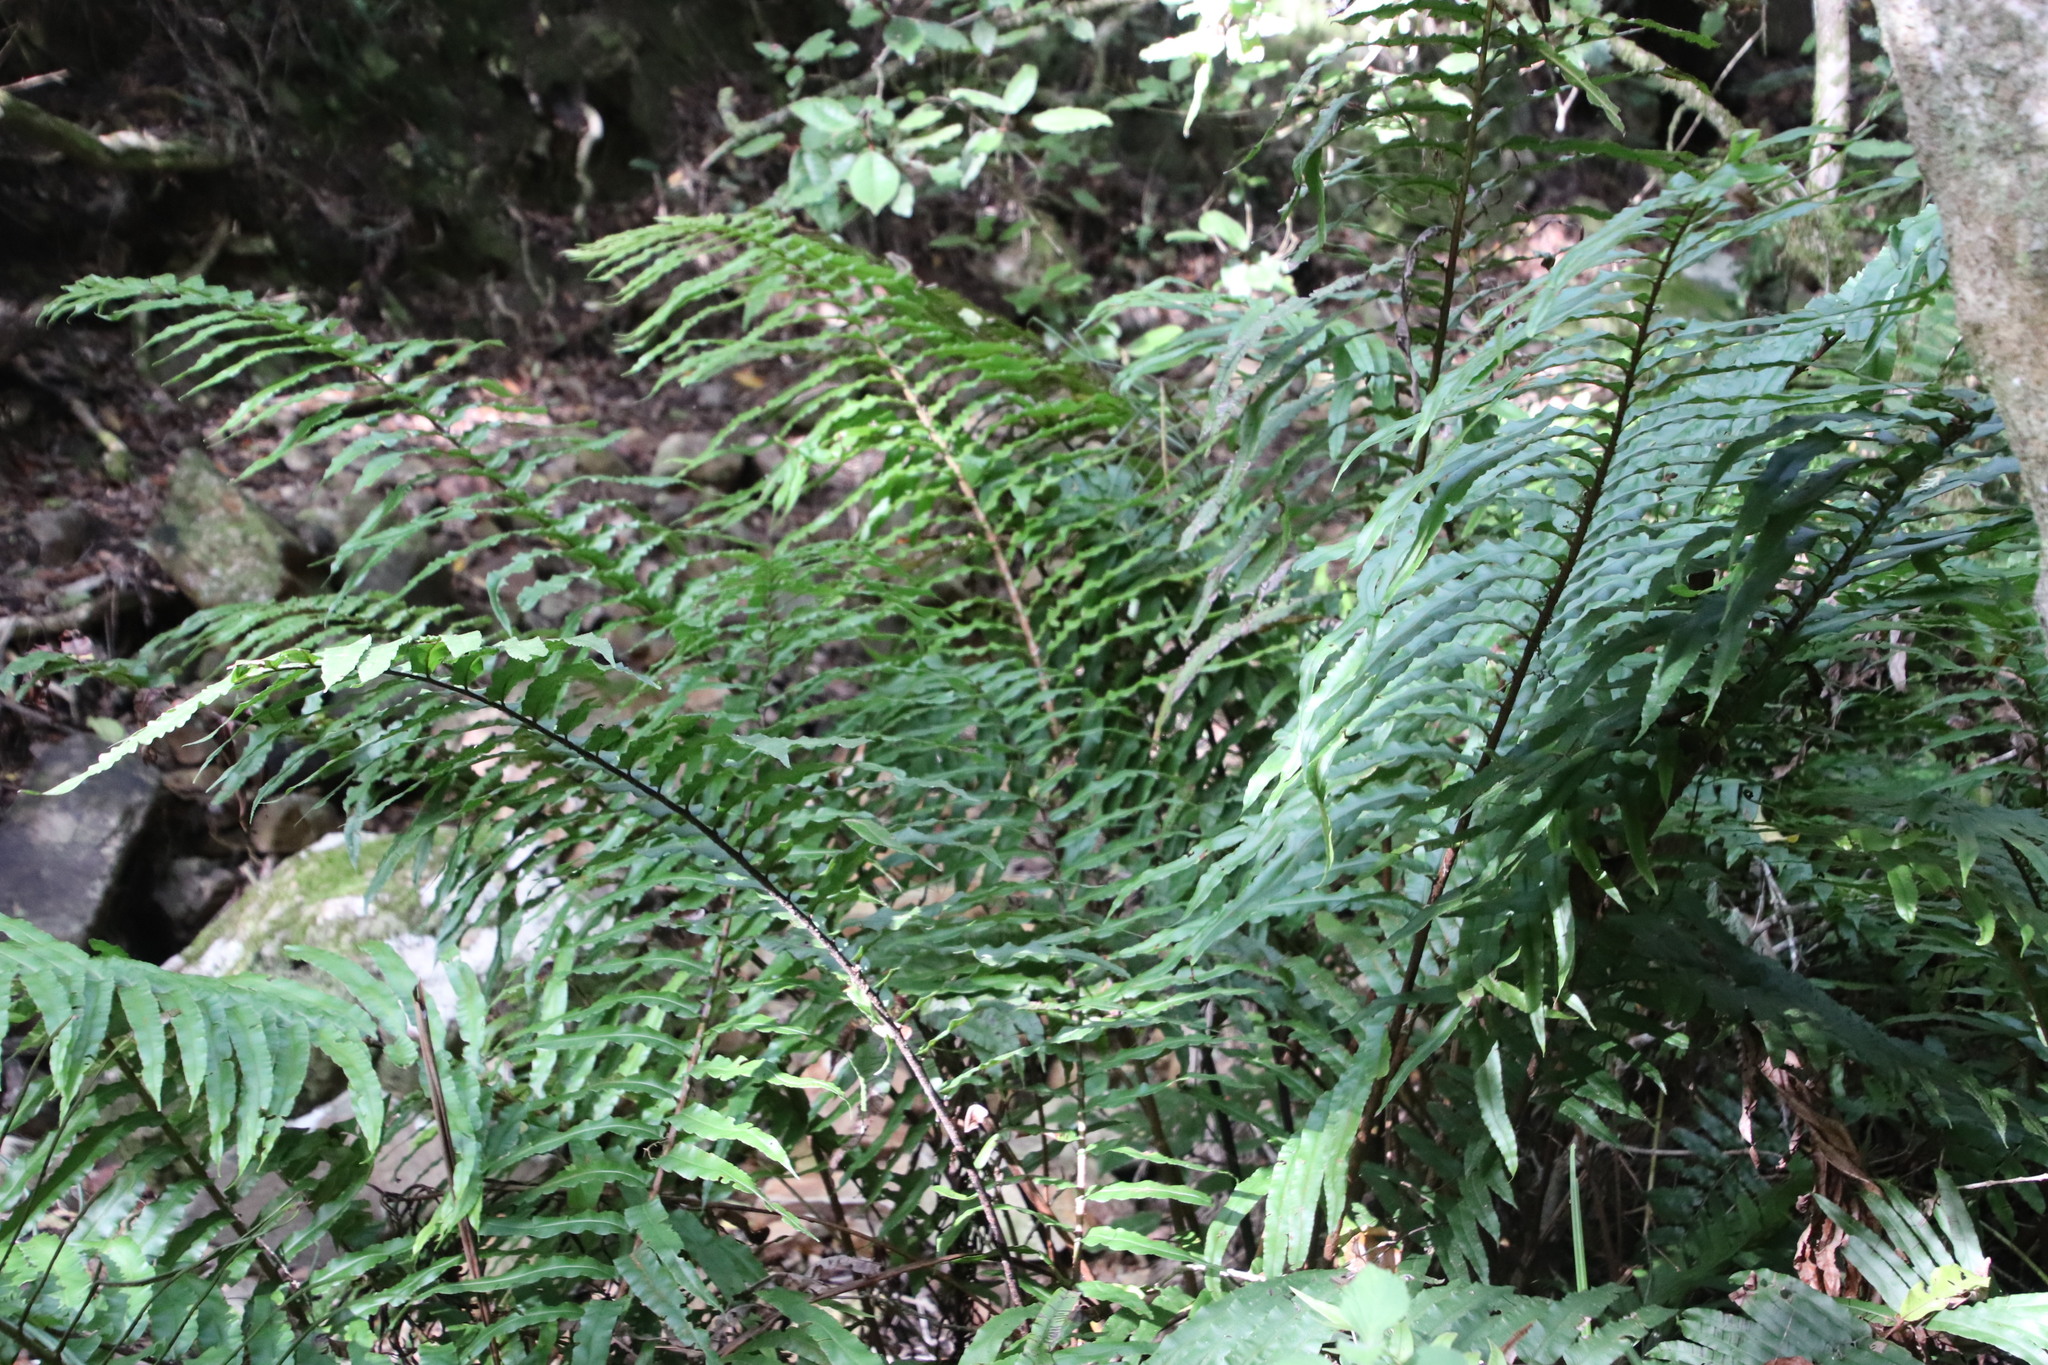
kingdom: Plantae
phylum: Tracheophyta
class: Polypodiopsida
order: Polypodiales
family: Blechnaceae
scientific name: Blechnaceae
